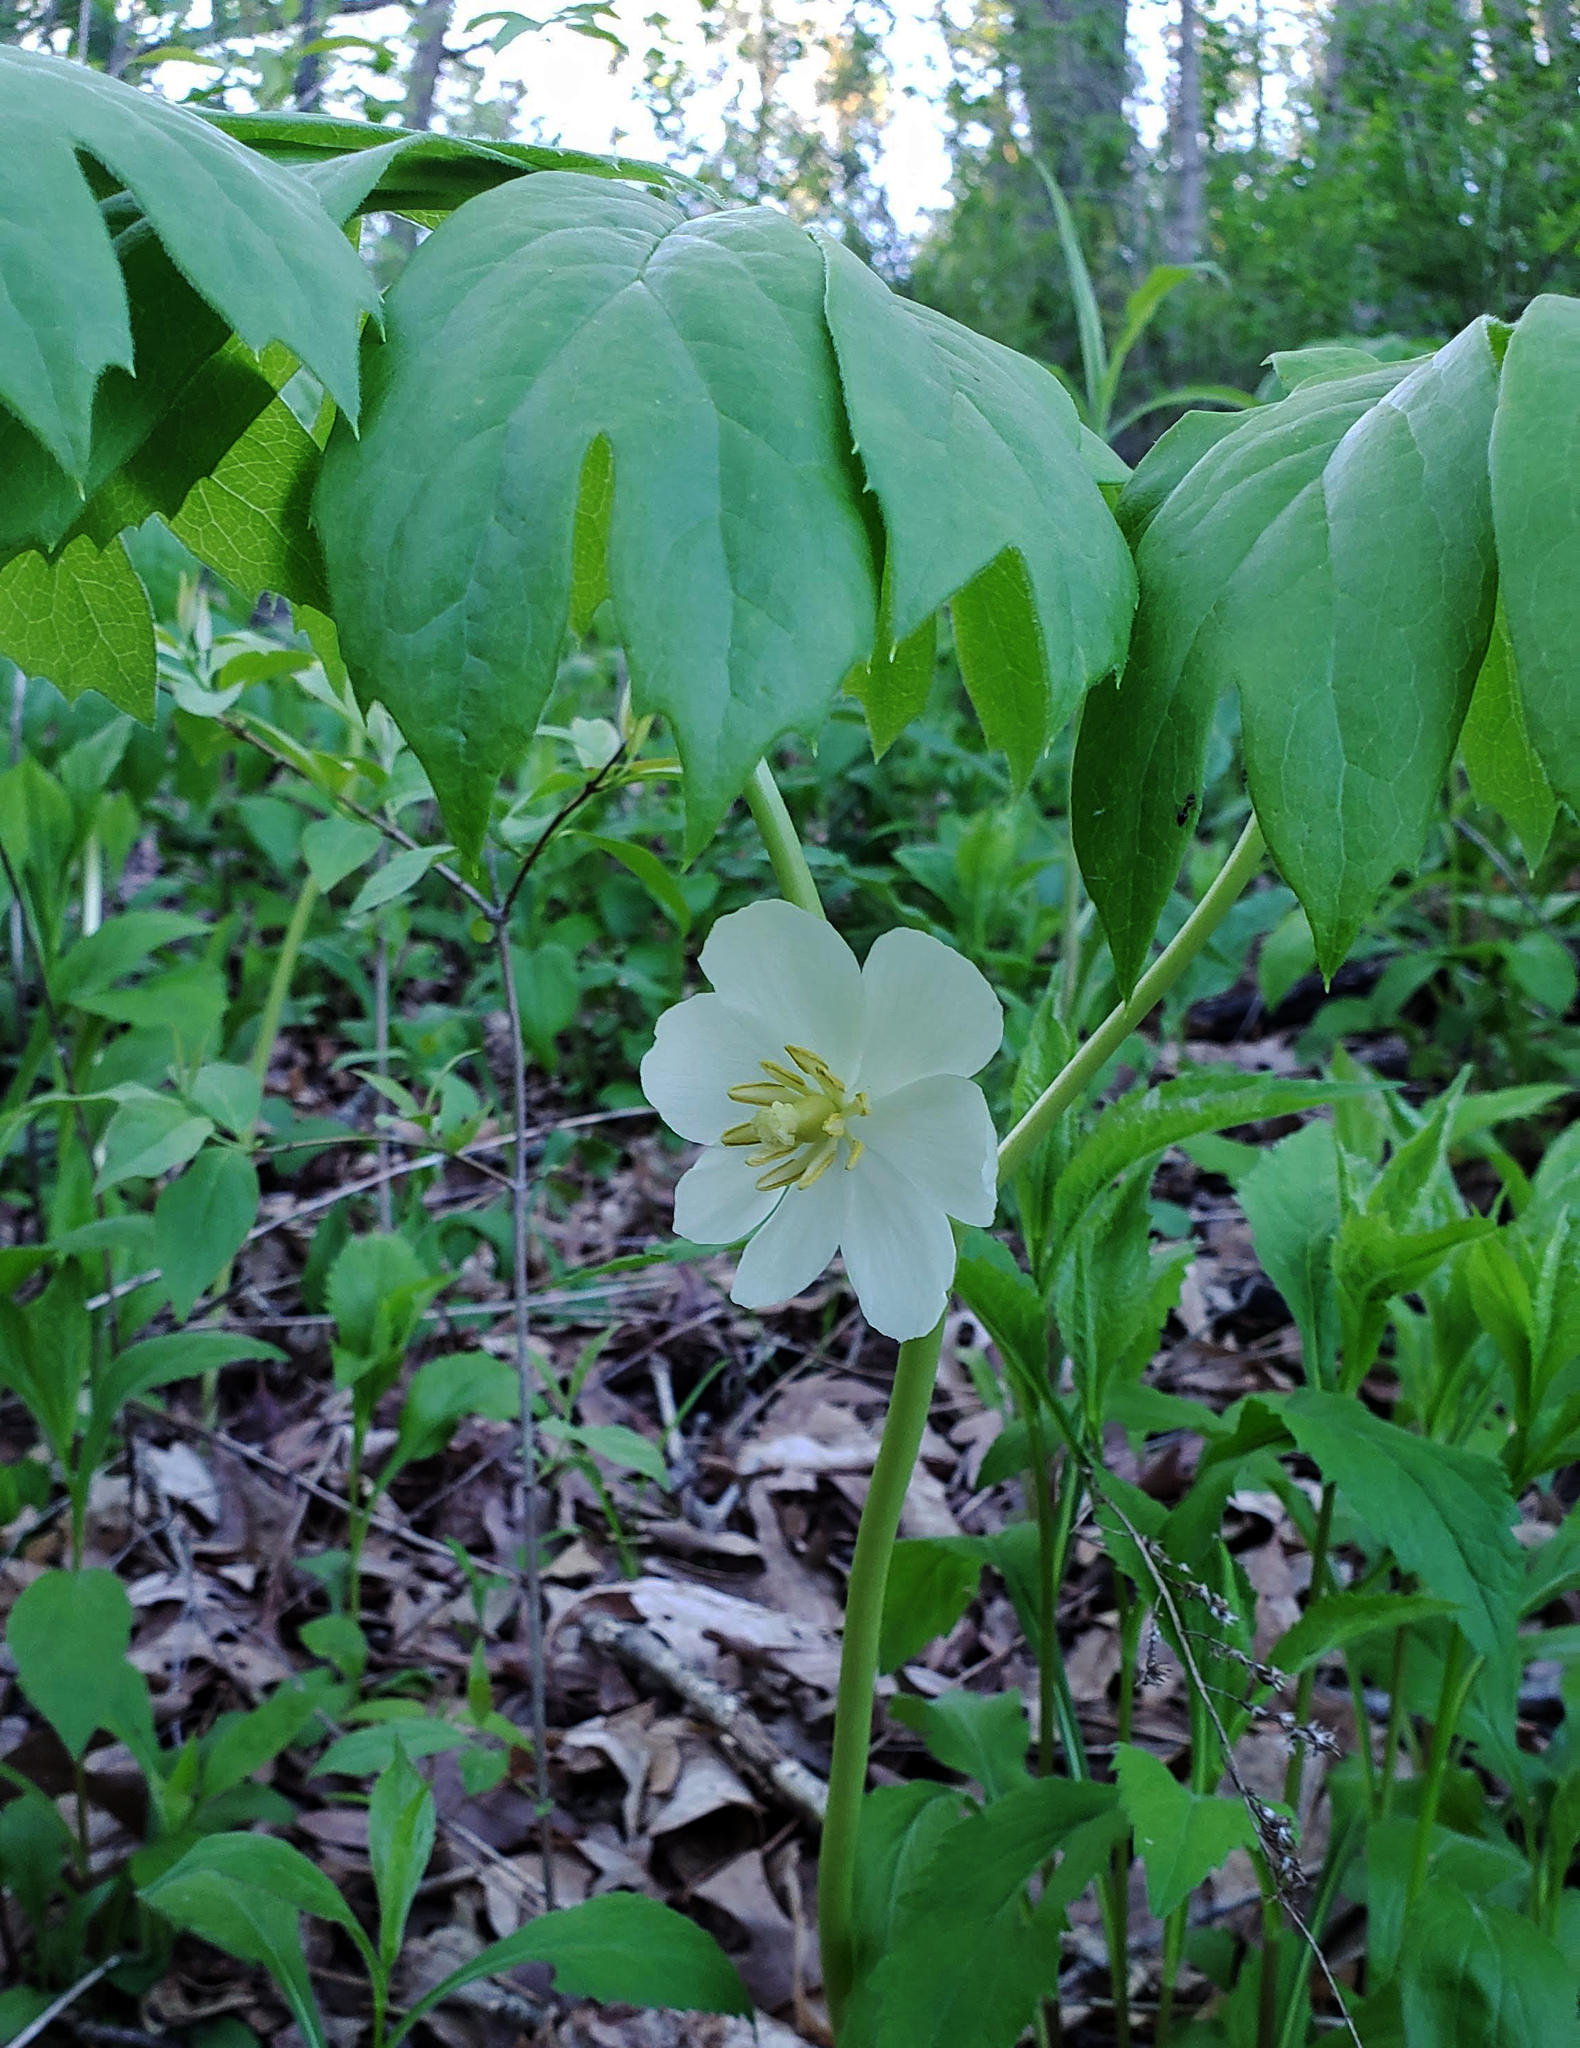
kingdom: Plantae
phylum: Tracheophyta
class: Magnoliopsida
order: Ranunculales
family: Berberidaceae
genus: Podophyllum
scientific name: Podophyllum peltatum
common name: Wild mandrake
